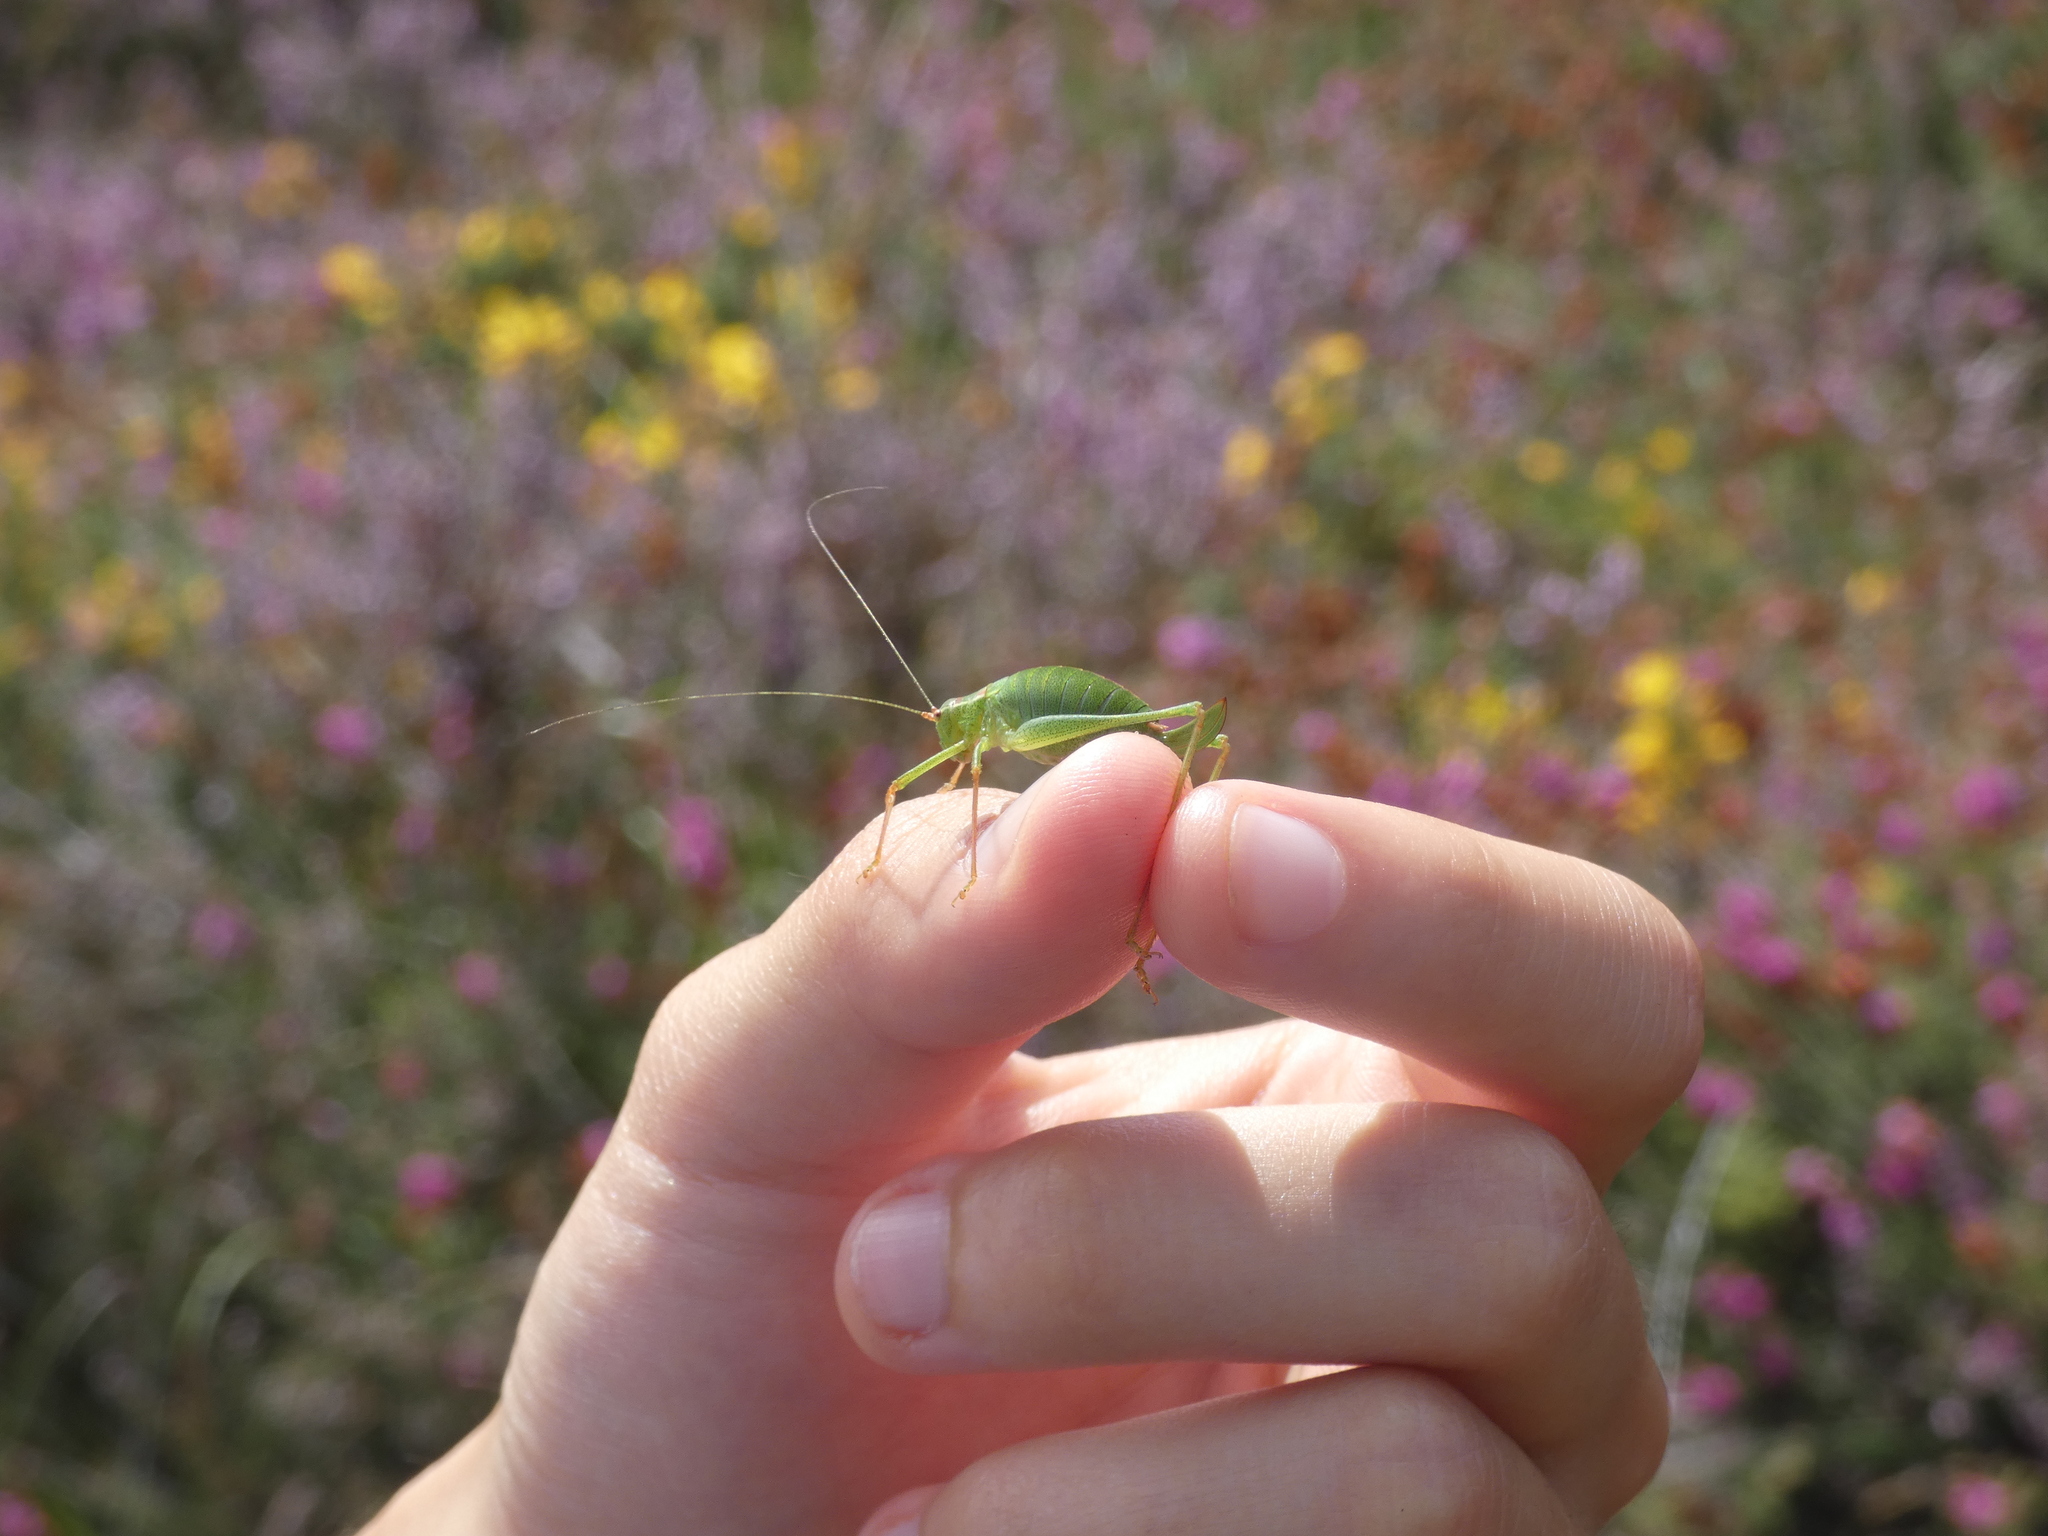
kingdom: Animalia
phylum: Arthropoda
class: Insecta
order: Orthoptera
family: Tettigoniidae
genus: Leptophyes
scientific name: Leptophyes punctatissima
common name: Speckled bush-cricket
